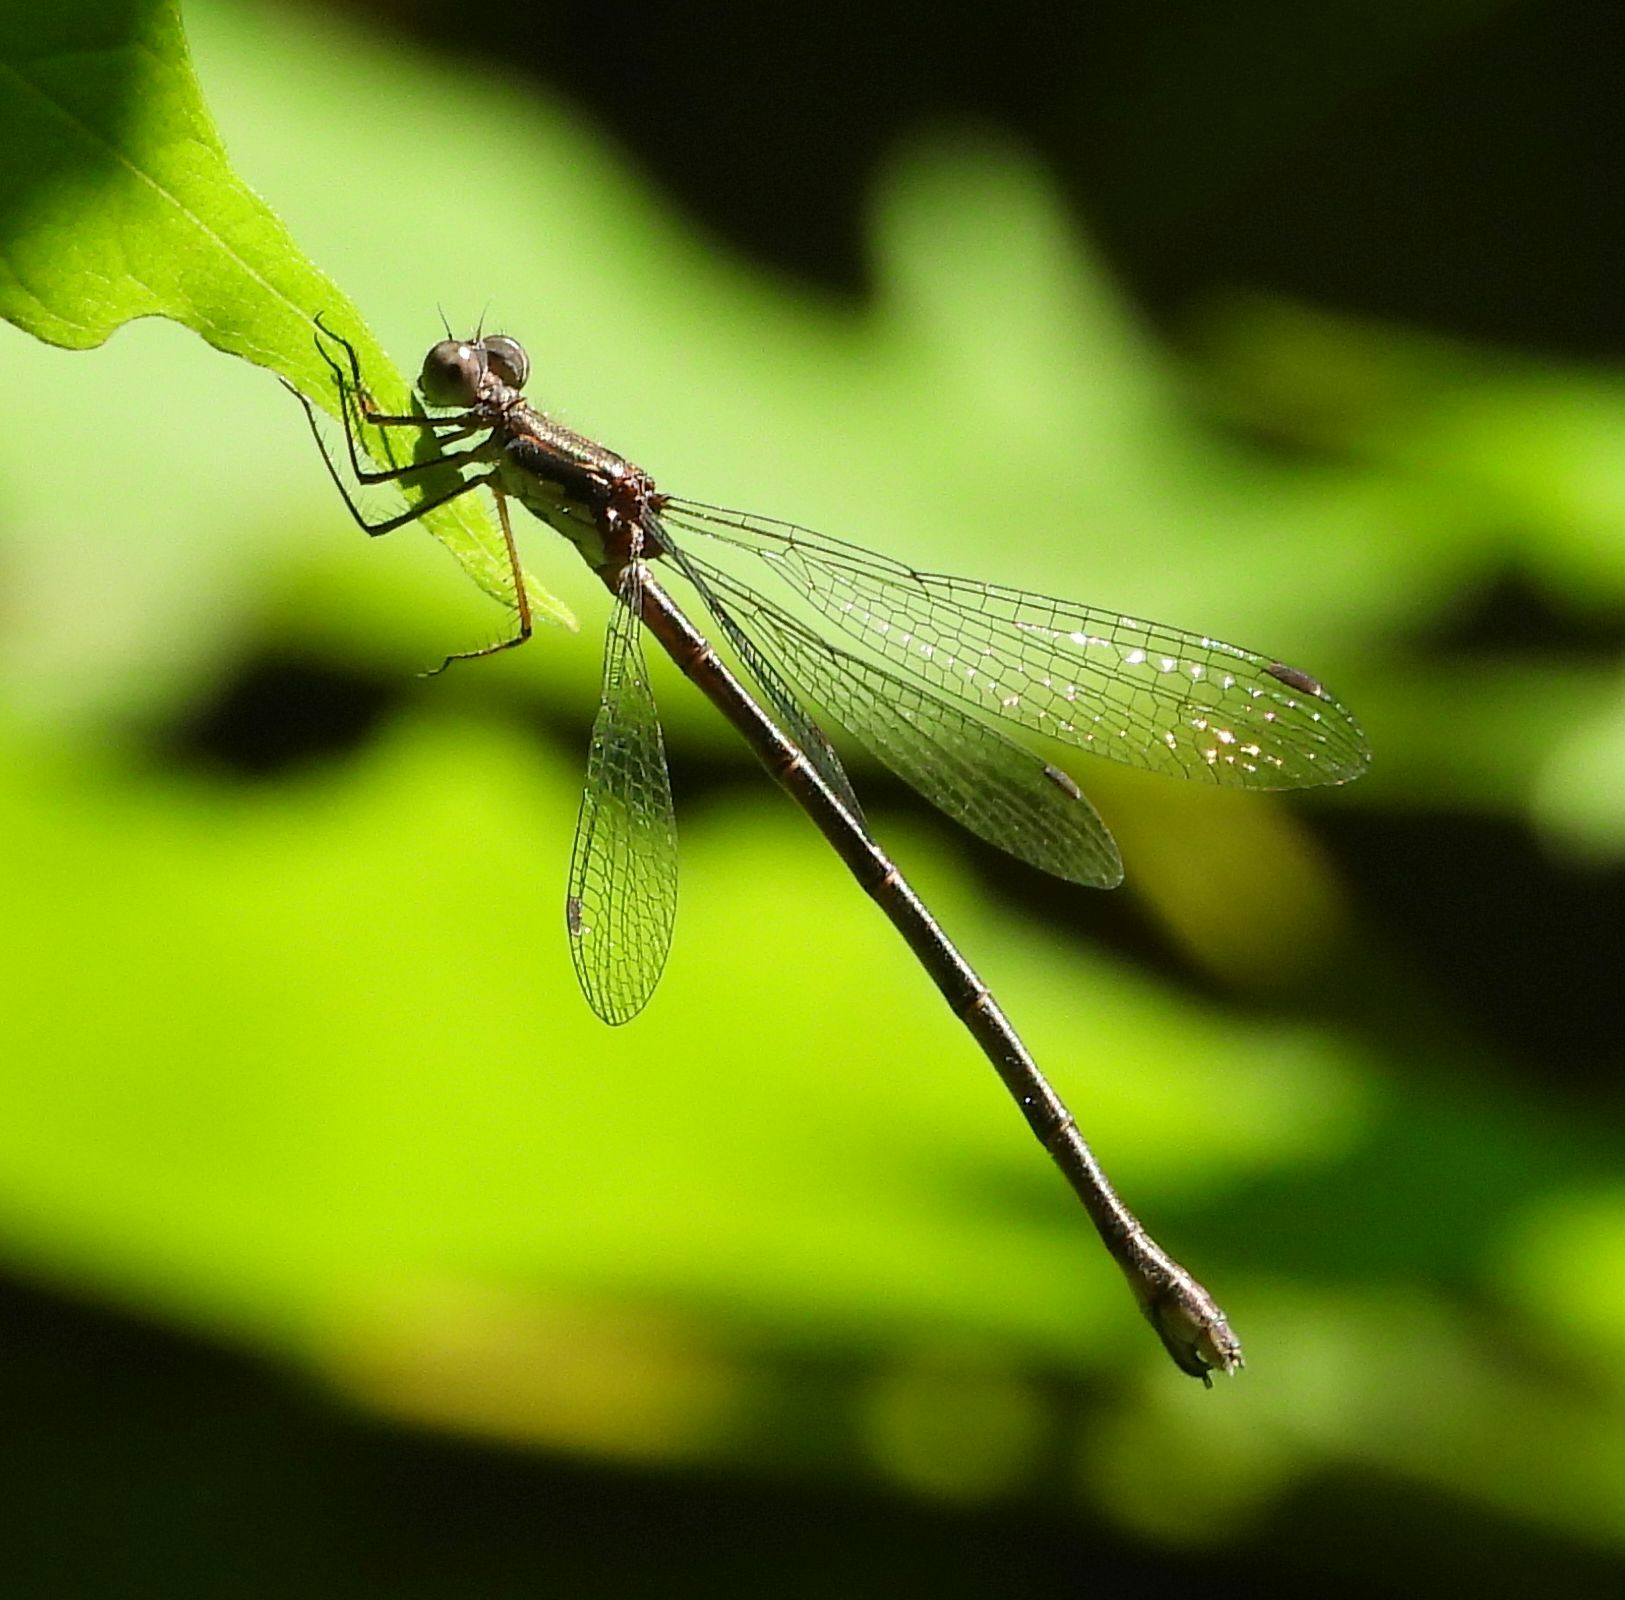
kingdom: Animalia
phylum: Arthropoda
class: Insecta
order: Odonata
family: Lestidae
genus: Lestes
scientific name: Lestes congener
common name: Spotted spreadwing
